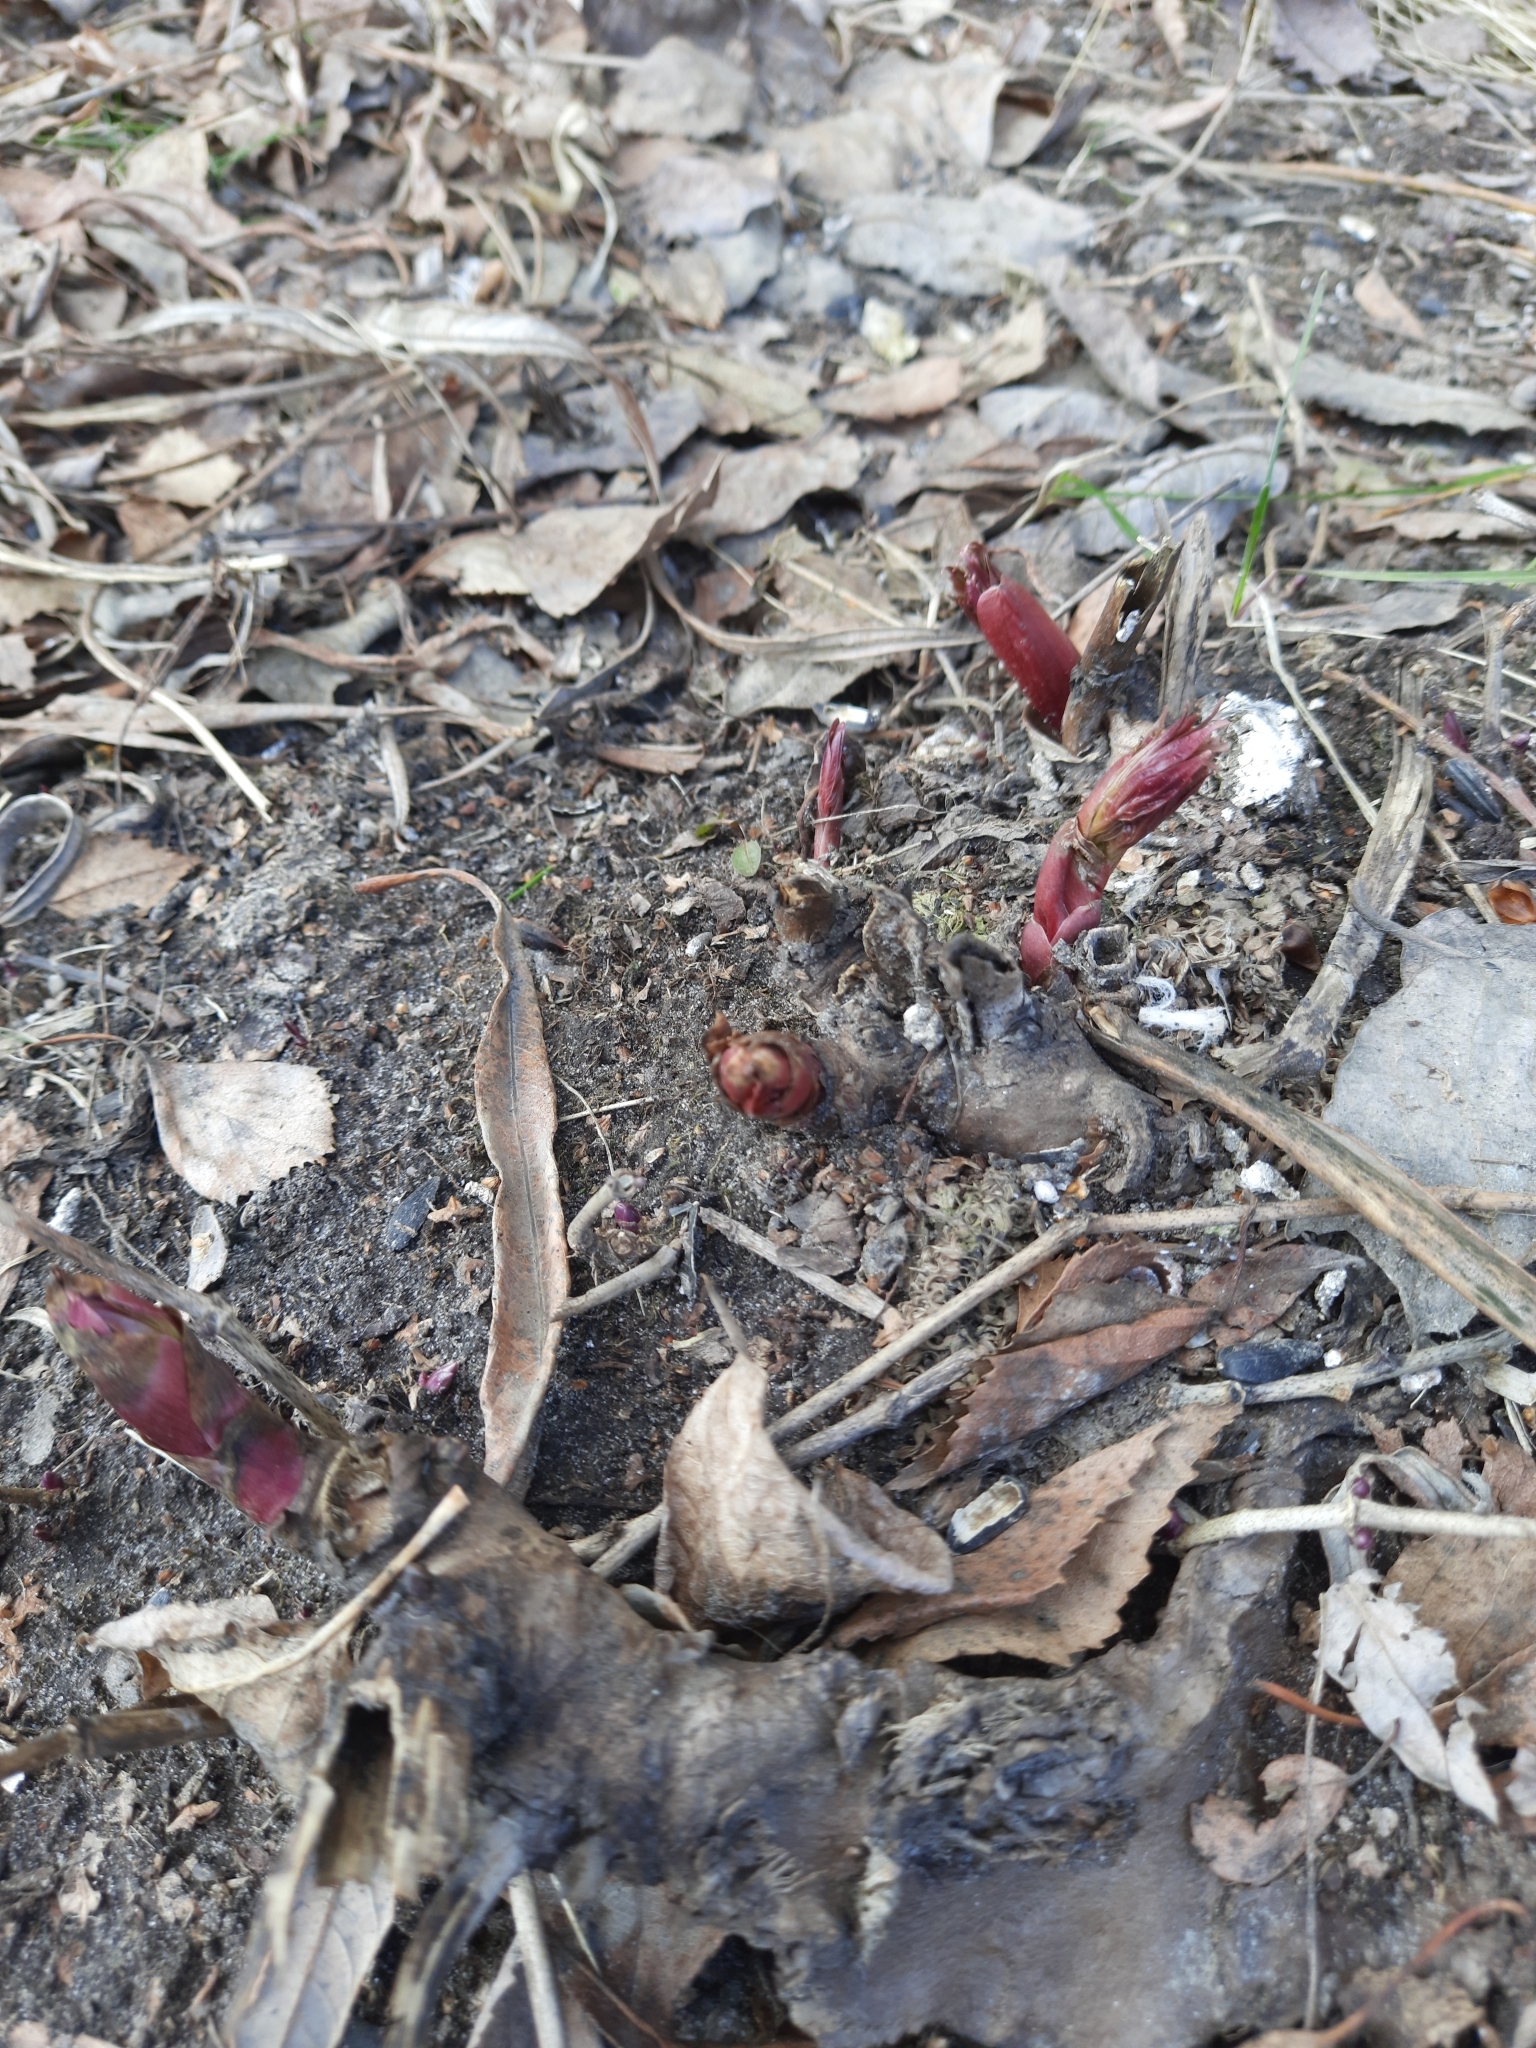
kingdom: Plantae
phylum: Tracheophyta
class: Magnoliopsida
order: Saxifragales
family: Paeoniaceae
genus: Paeonia
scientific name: Paeonia anomala
